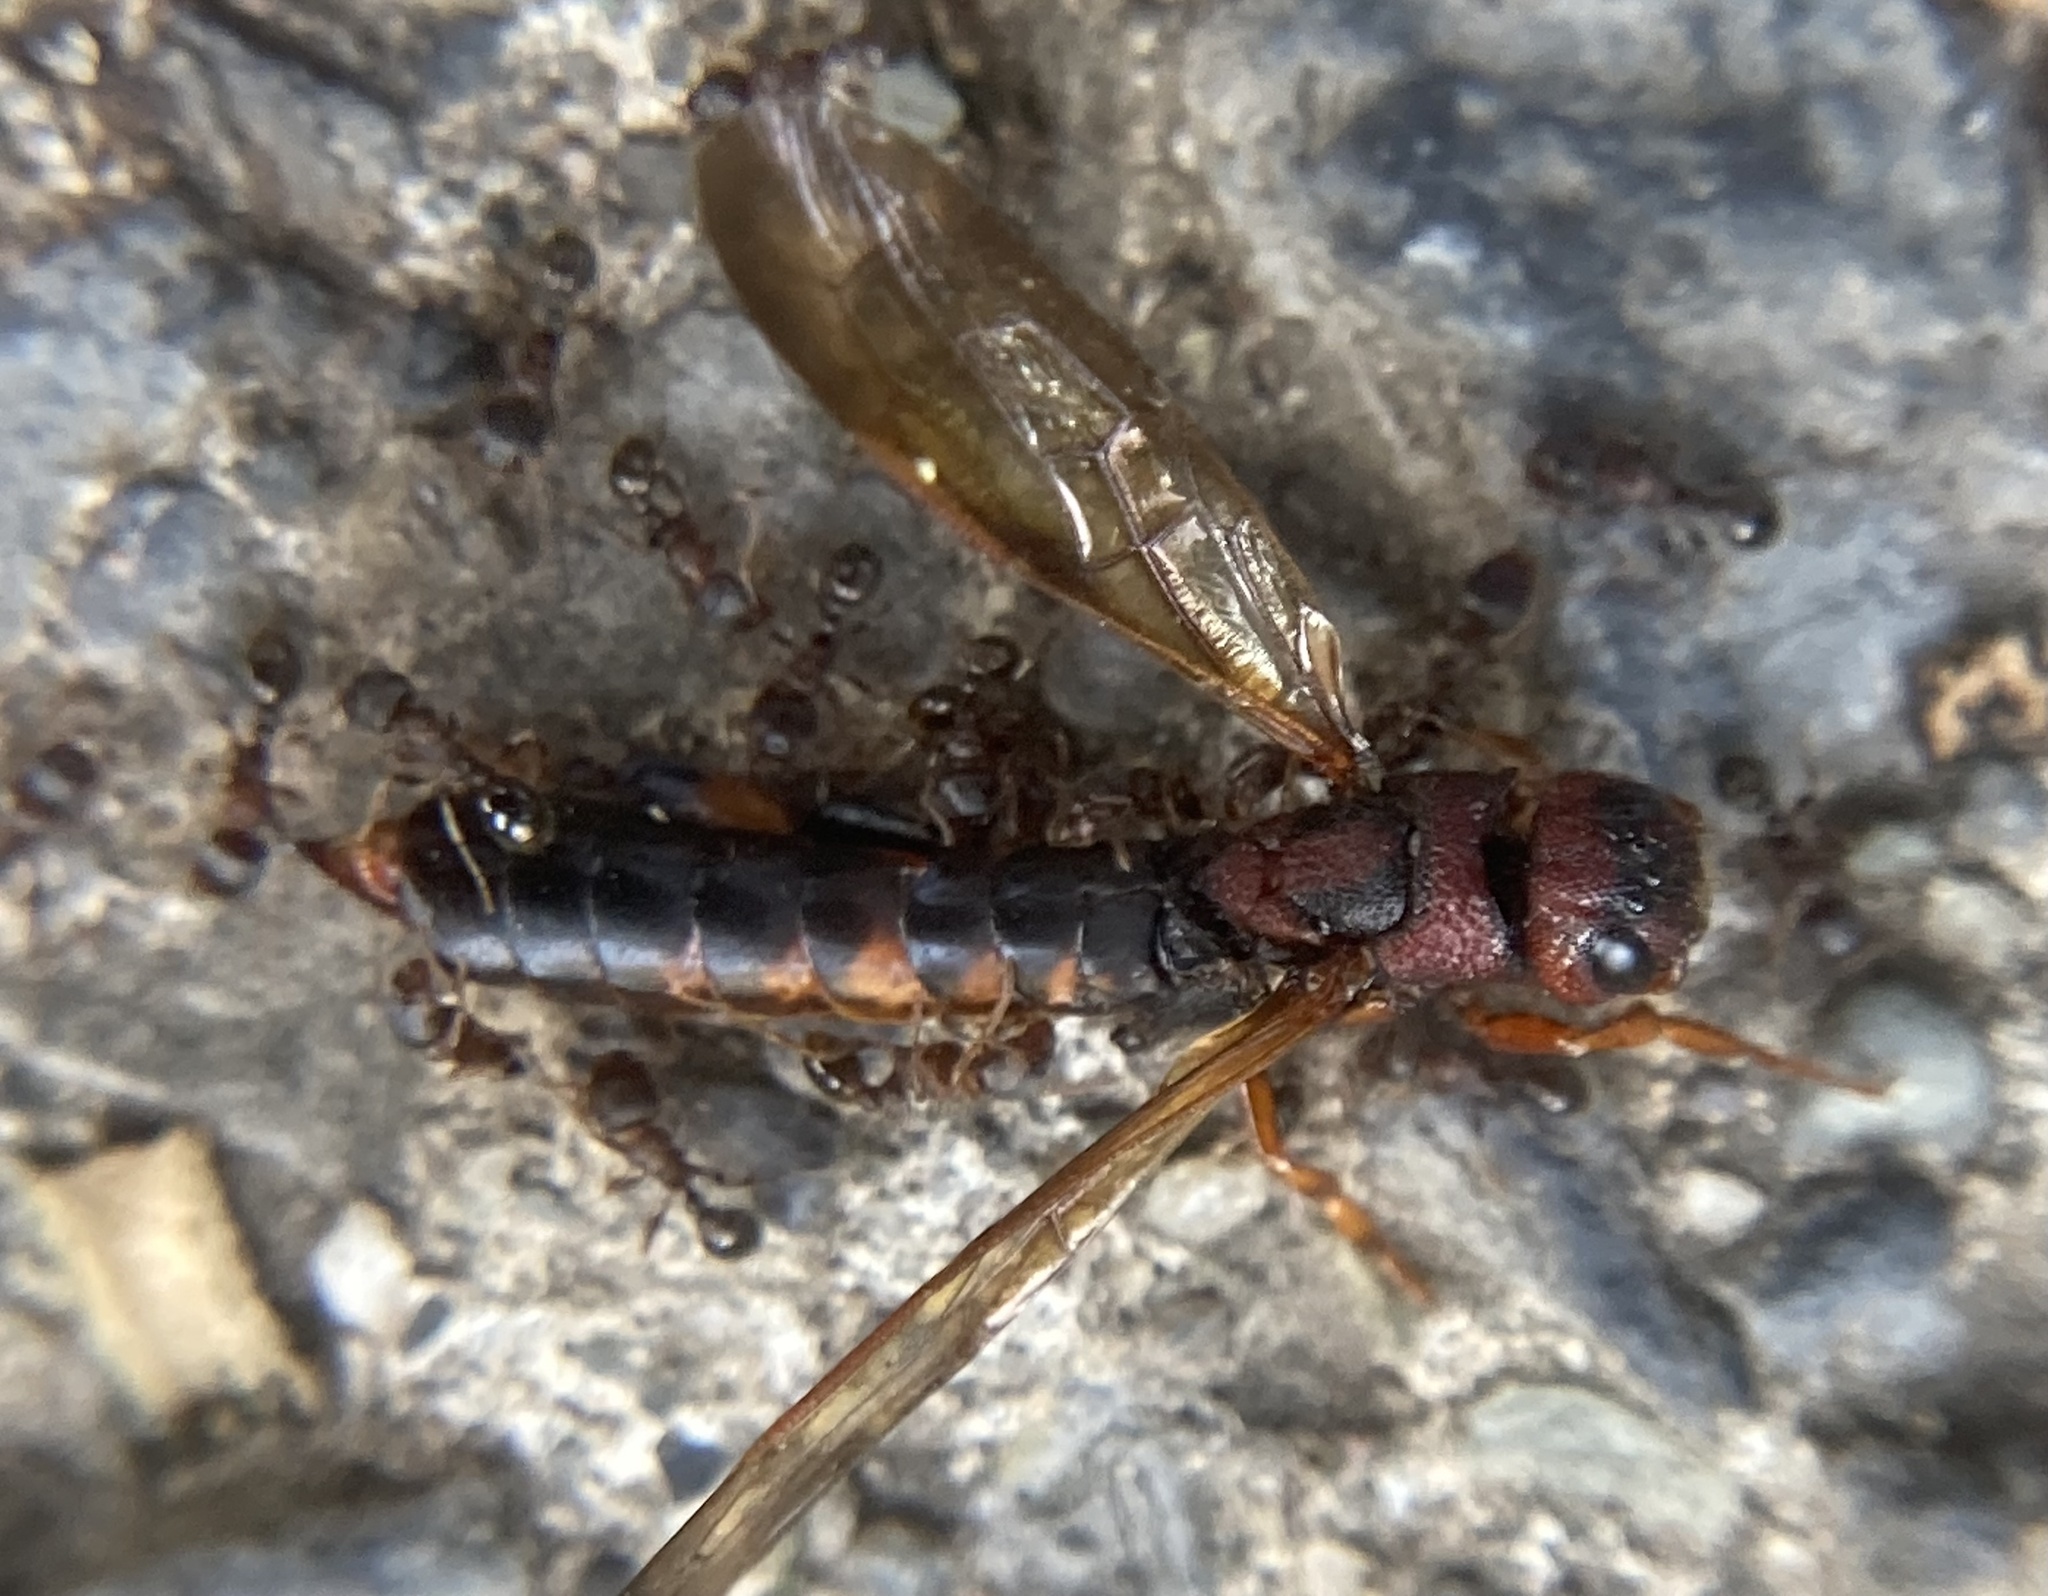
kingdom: Animalia
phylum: Arthropoda
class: Insecta
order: Hymenoptera
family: Siricidae
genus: Tremex
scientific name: Tremex columba
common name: Wasp
